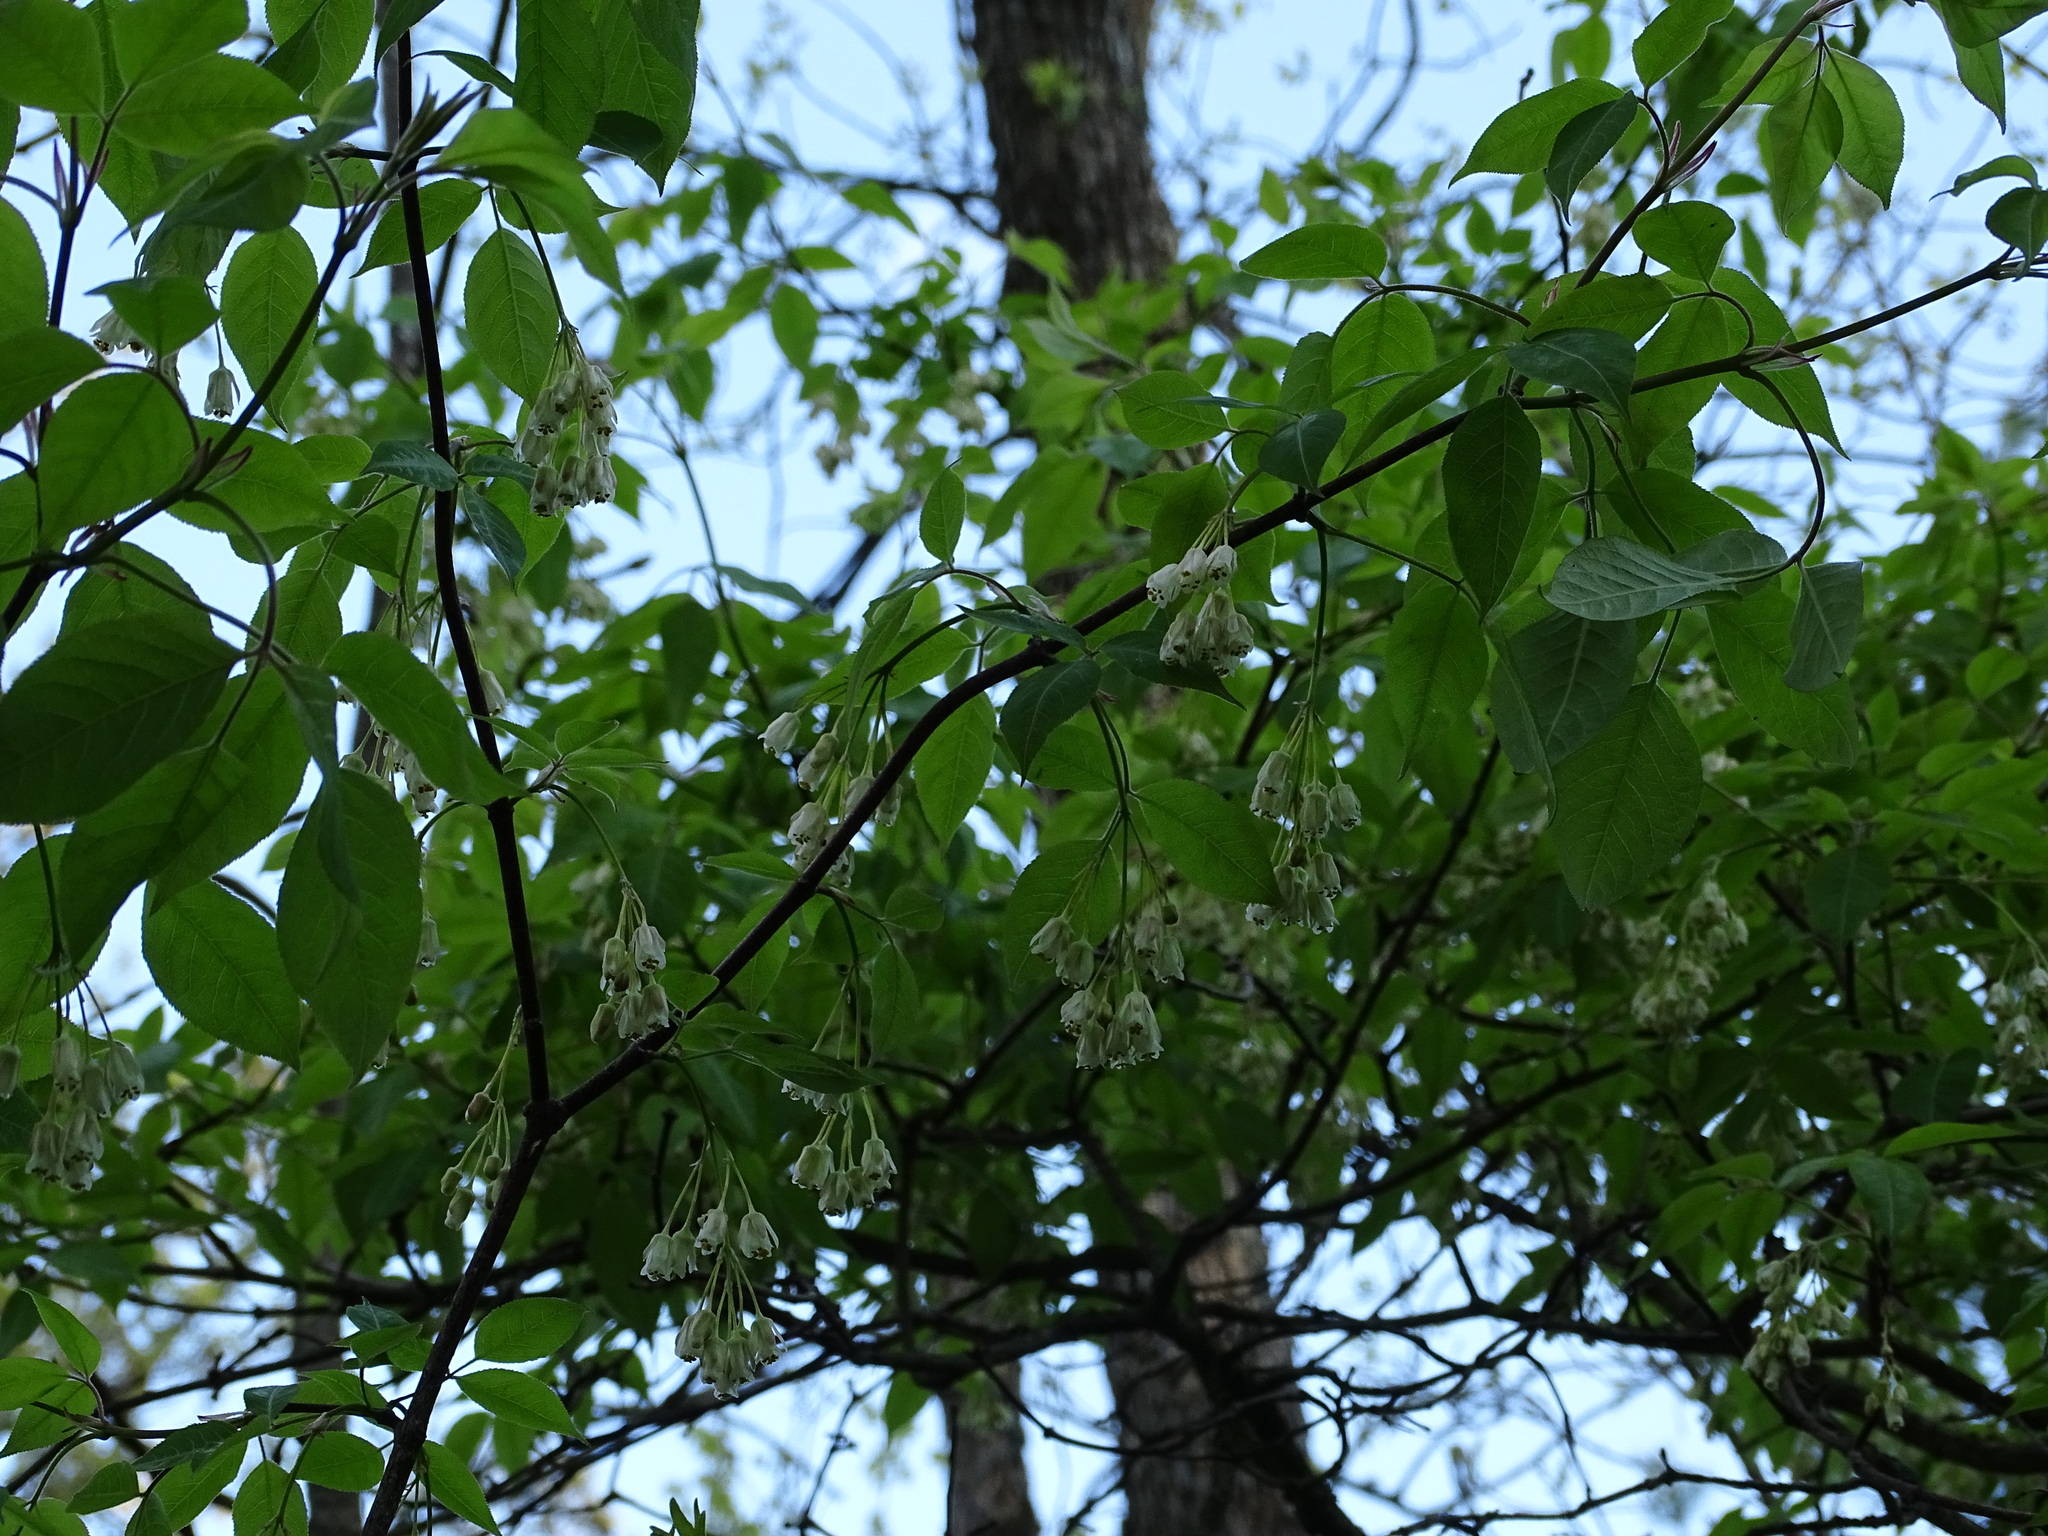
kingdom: Plantae
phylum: Tracheophyta
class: Magnoliopsida
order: Crossosomatales
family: Staphyleaceae
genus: Staphylea
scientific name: Staphylea trifolia
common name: American bladdernut
